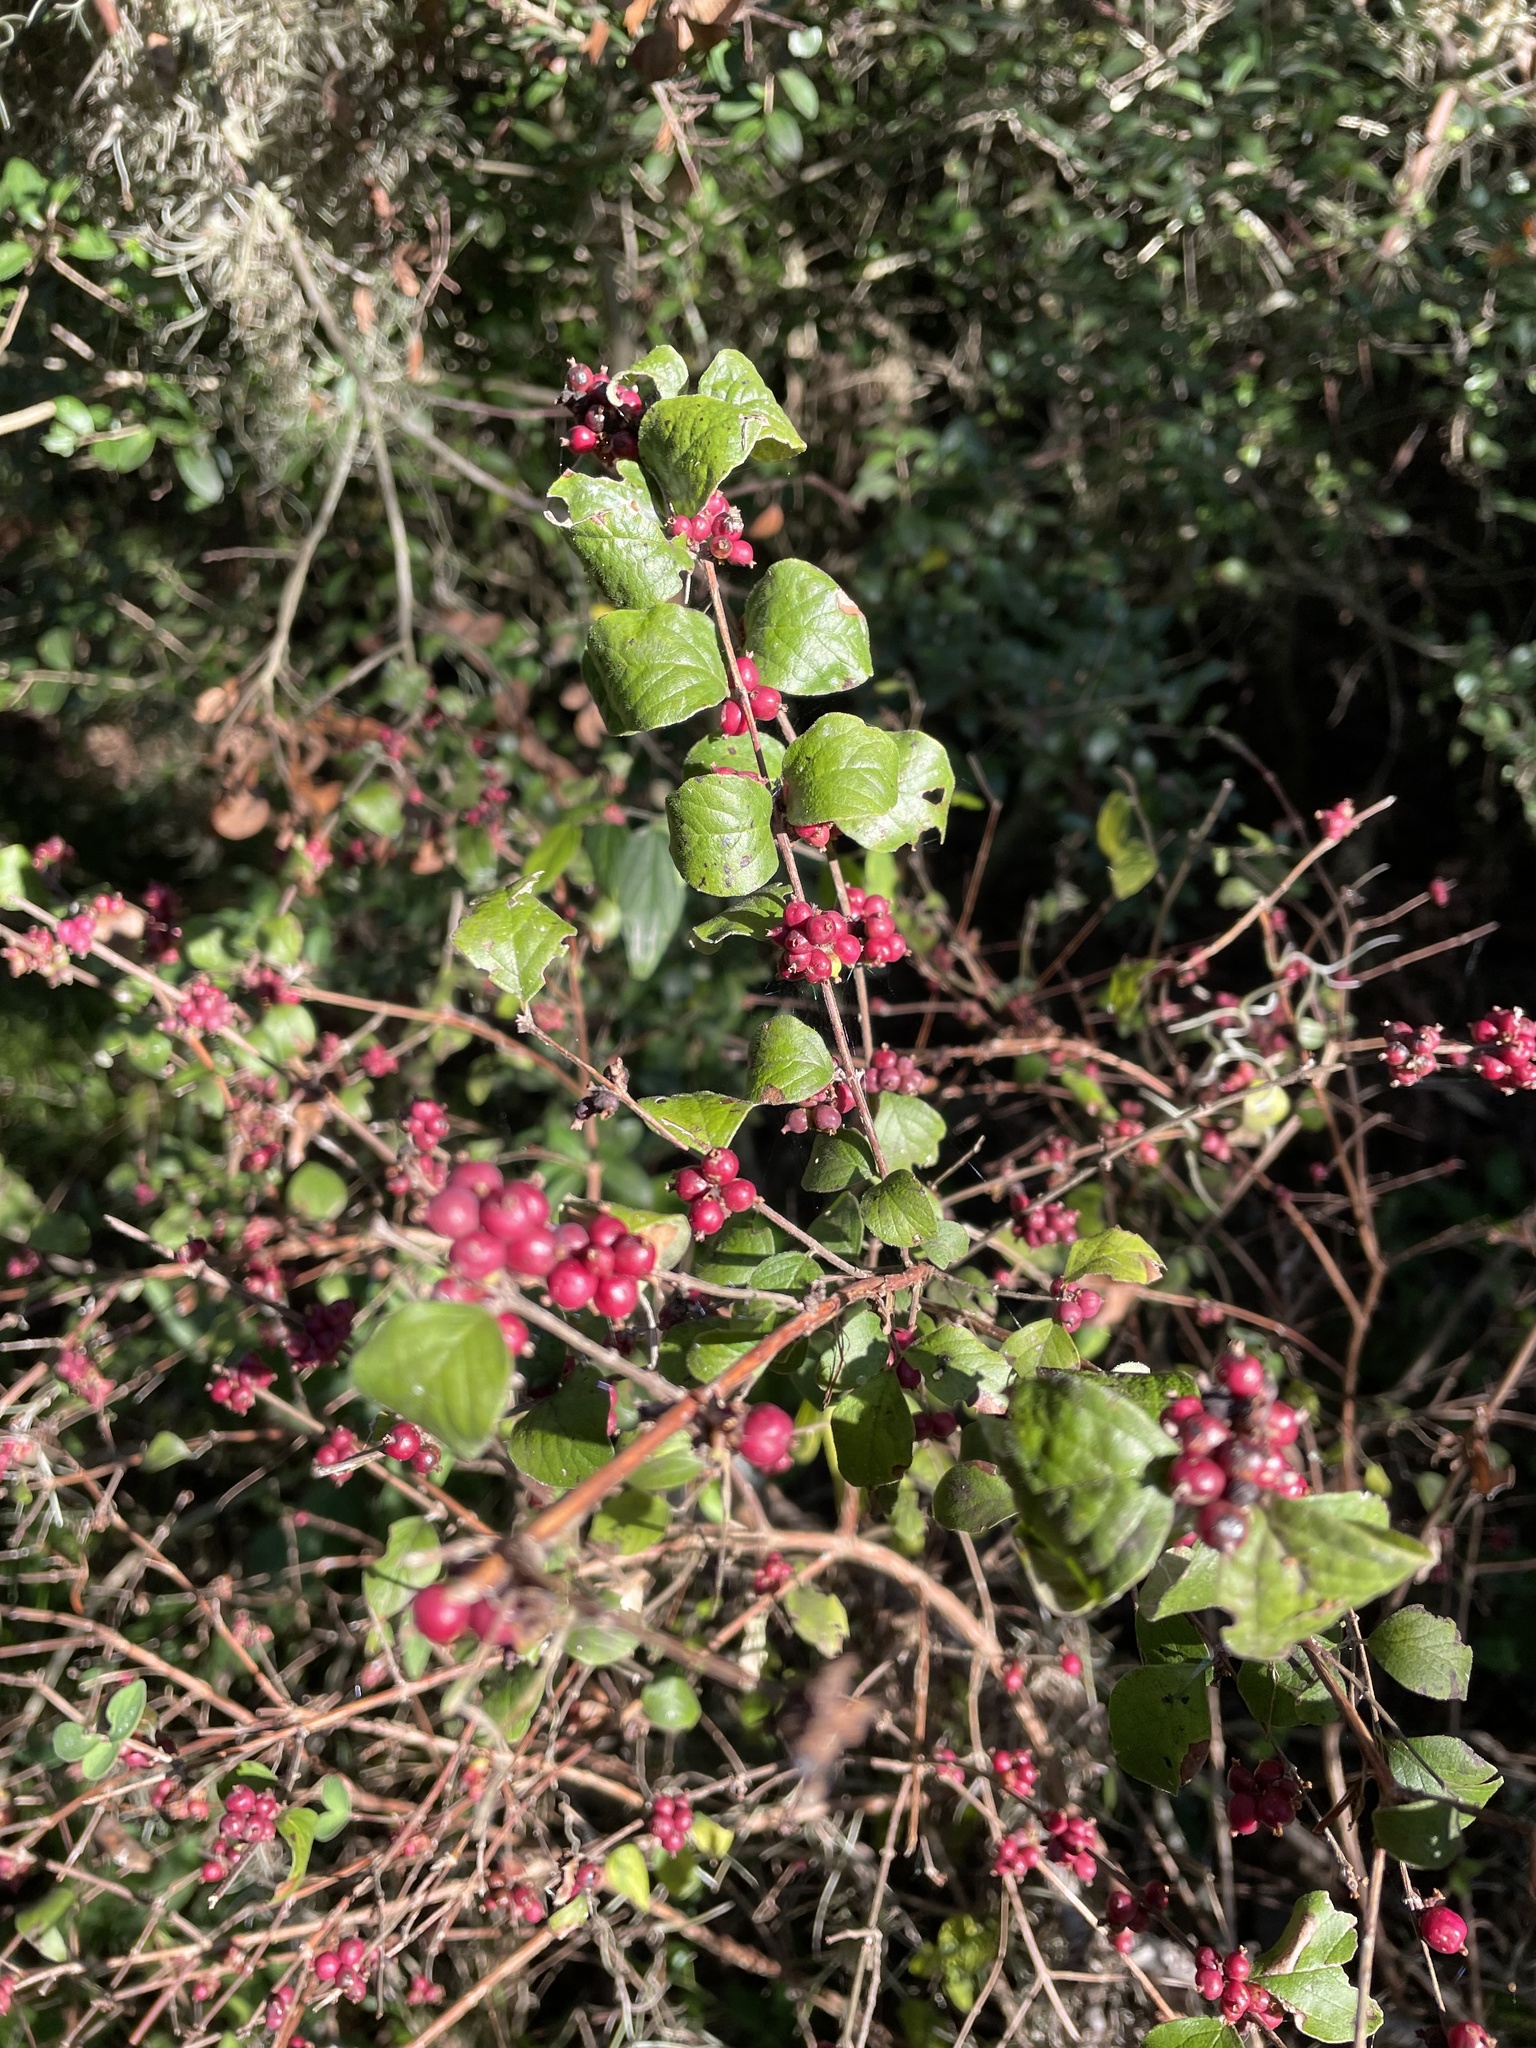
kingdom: Plantae
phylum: Tracheophyta
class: Magnoliopsida
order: Dipsacales
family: Caprifoliaceae
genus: Symphoricarpos
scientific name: Symphoricarpos orbiculatus
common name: Coralberry
